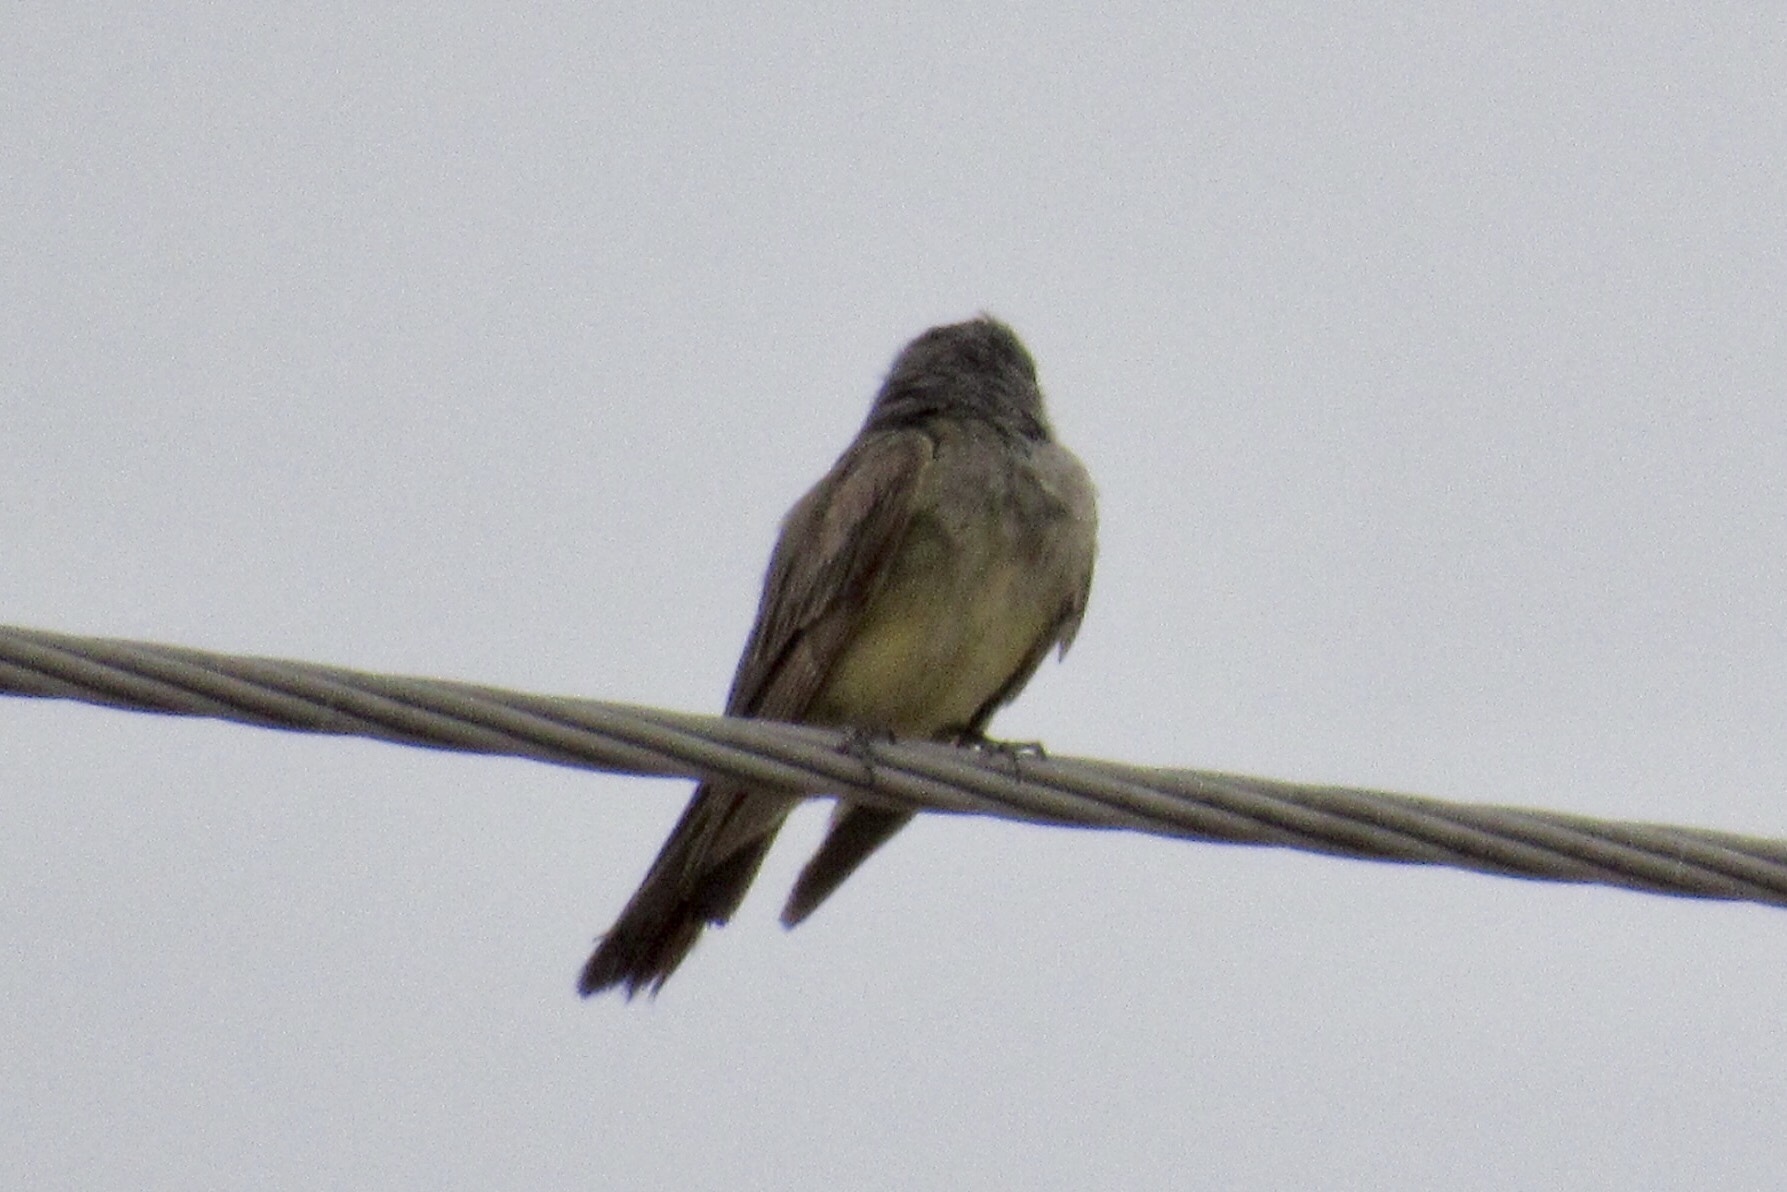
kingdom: Animalia
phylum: Chordata
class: Aves
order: Passeriformes
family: Tyrannidae
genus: Tyrannus
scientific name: Tyrannus vociferans
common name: Cassin's kingbird
